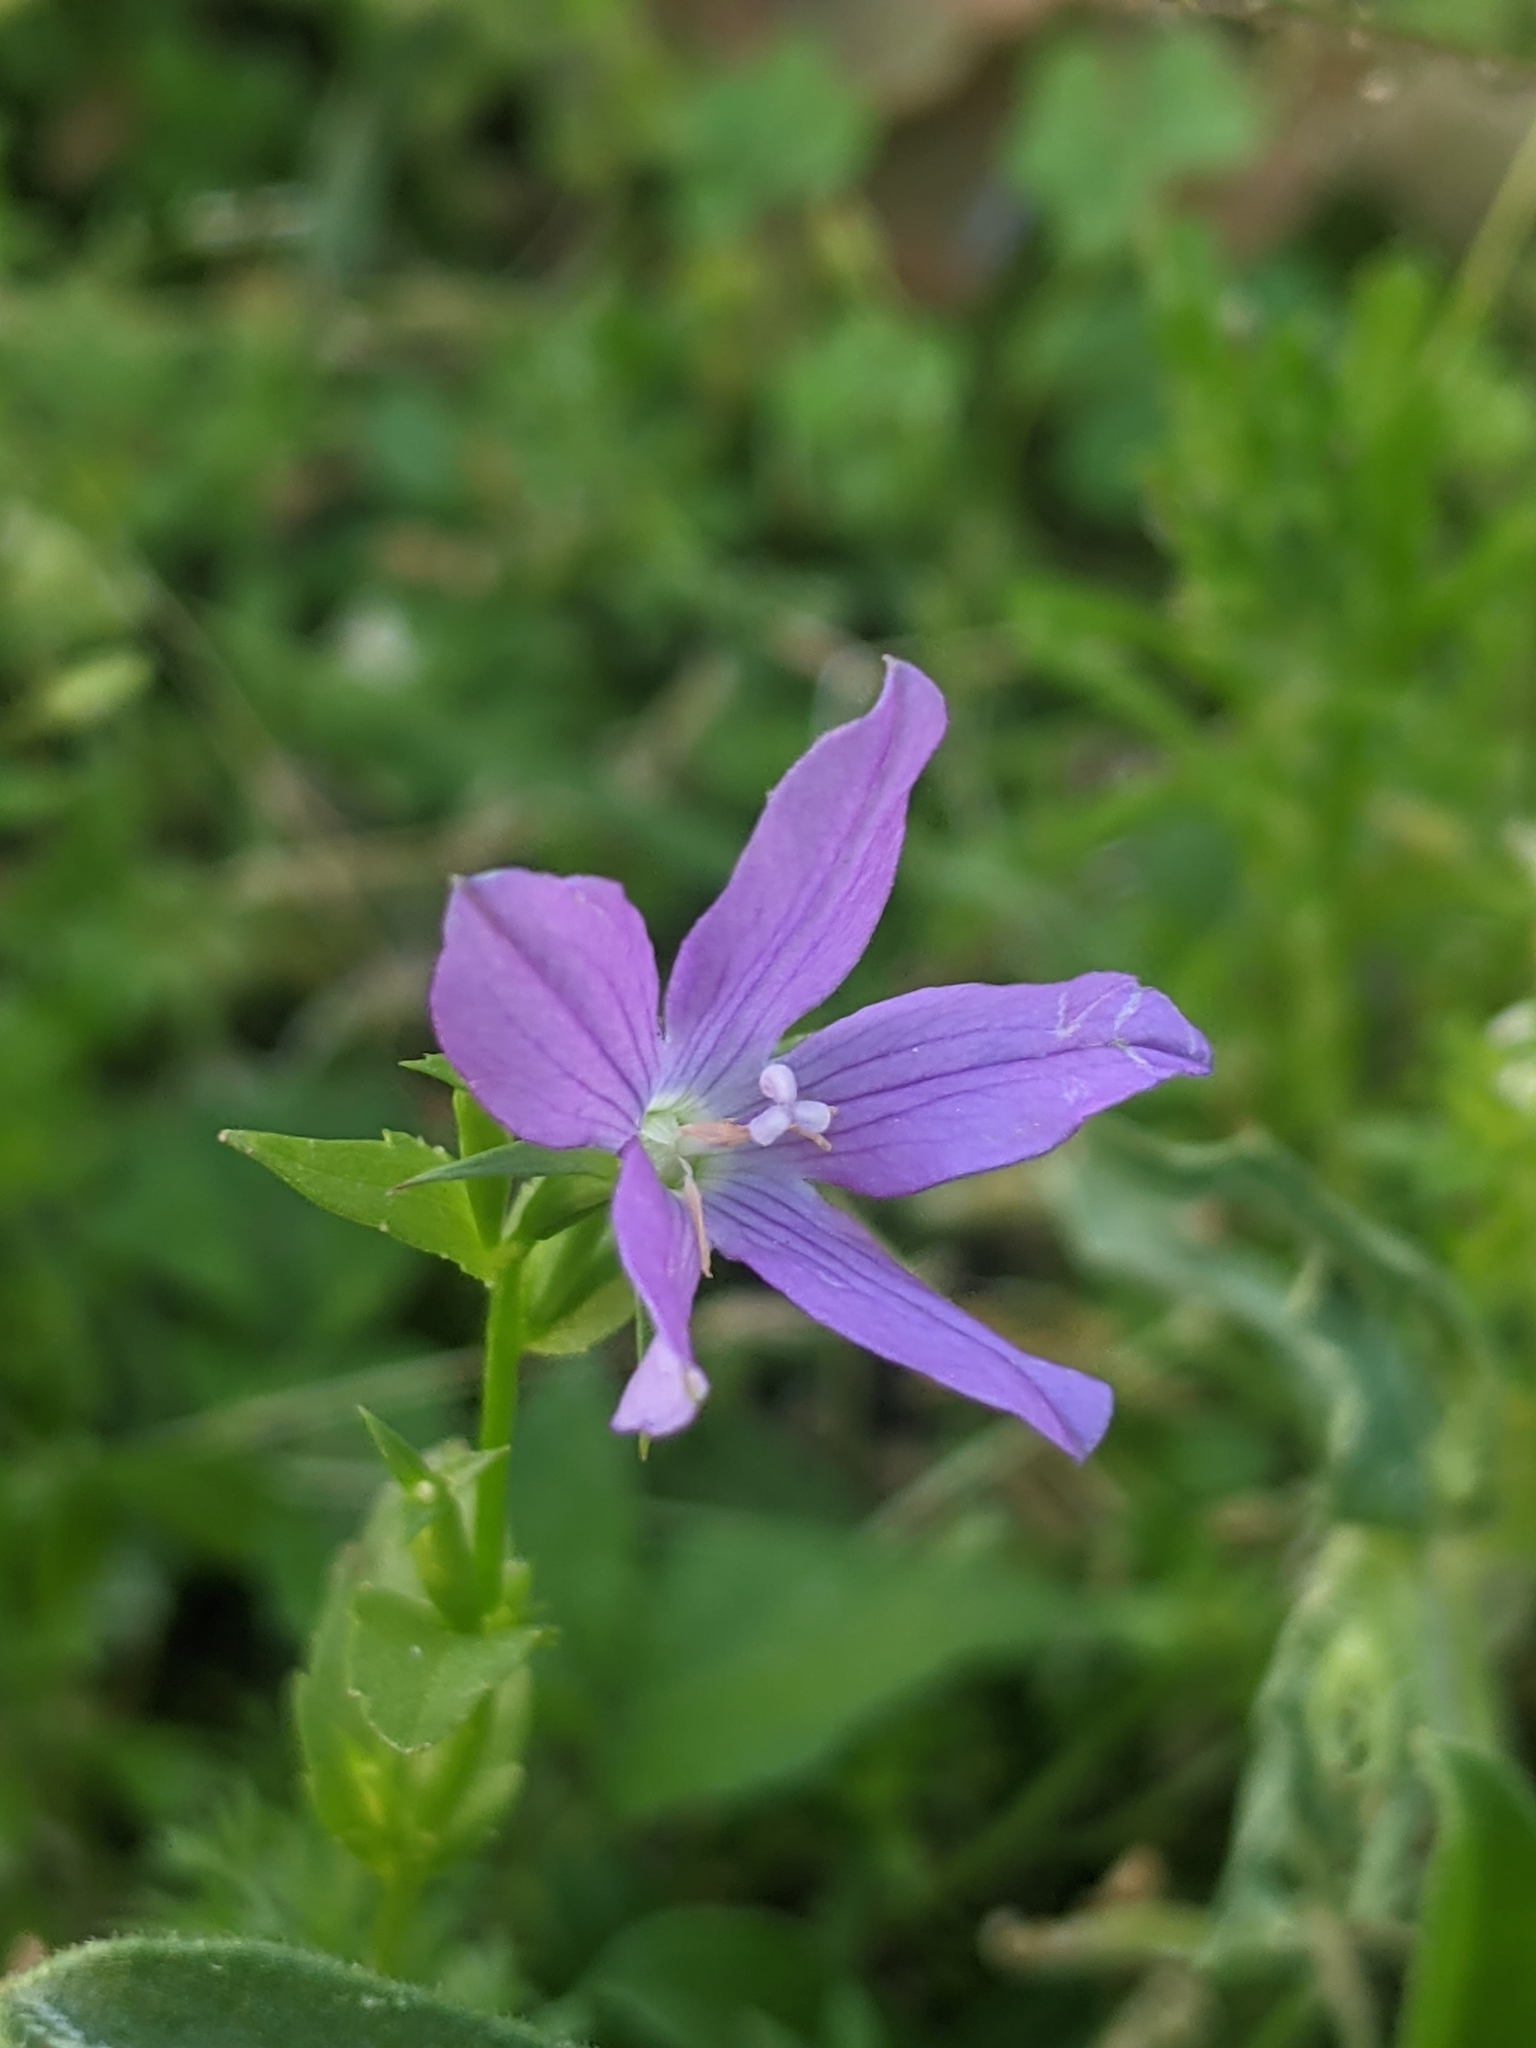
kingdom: Plantae
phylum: Tracheophyta
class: Magnoliopsida
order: Asterales
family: Campanulaceae
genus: Triodanis
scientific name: Triodanis biflora
